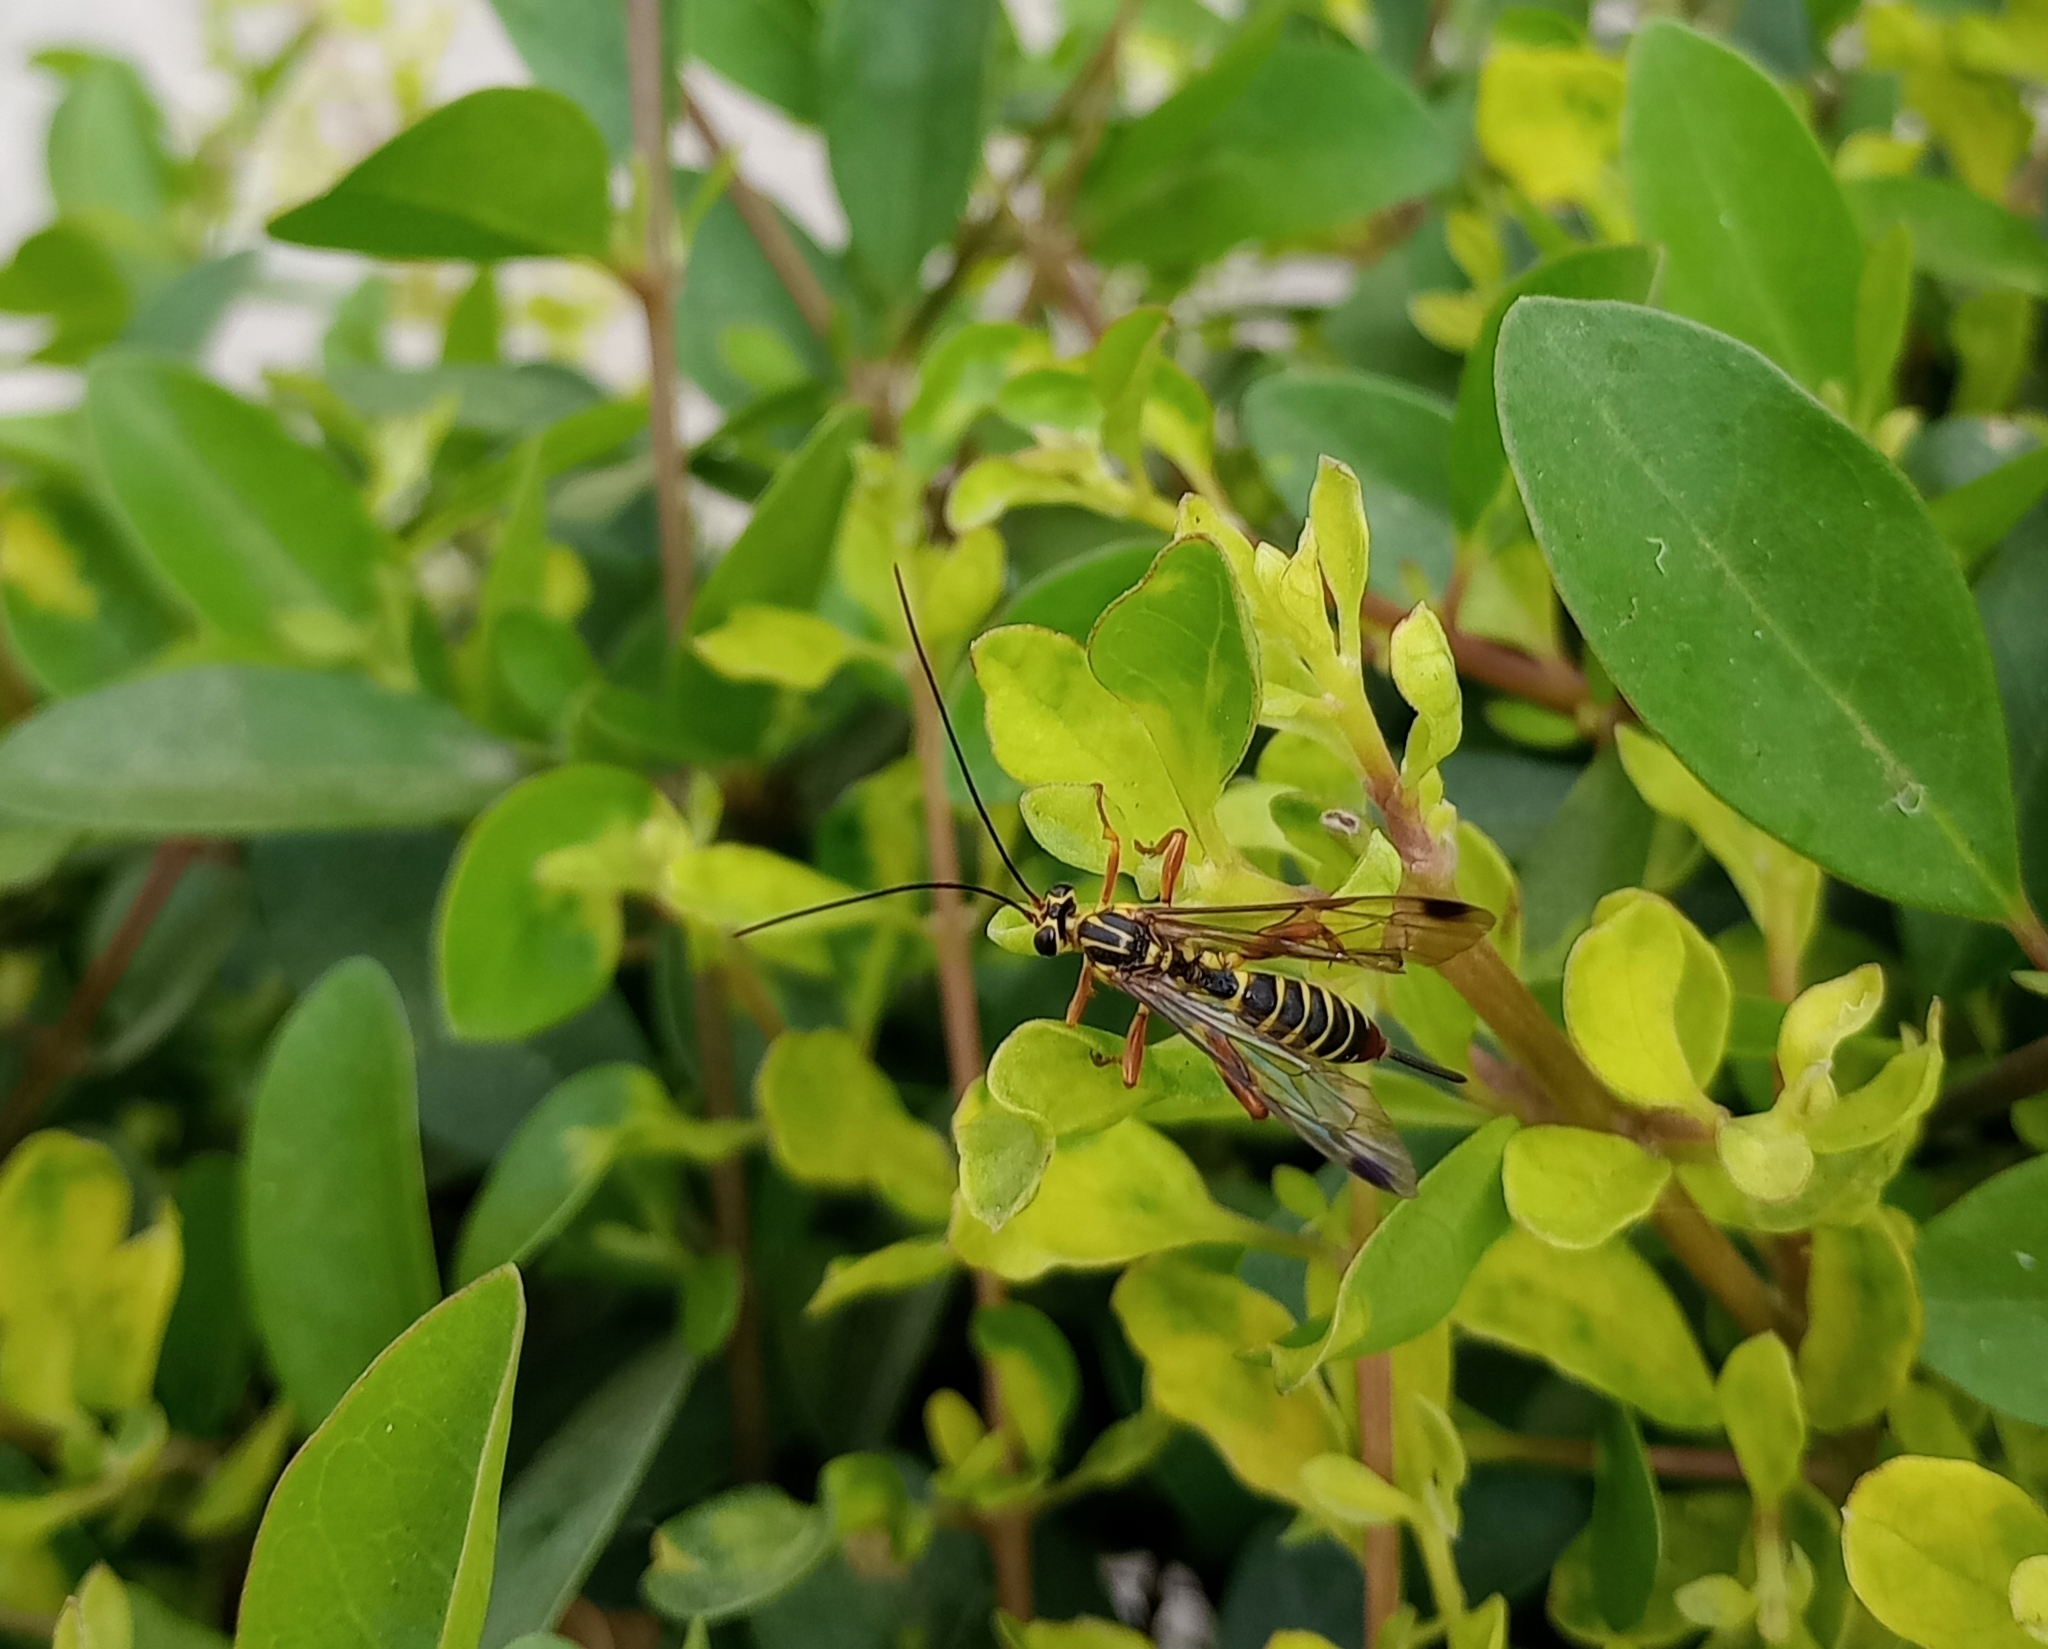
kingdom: Animalia
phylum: Arthropoda
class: Insecta
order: Hymenoptera
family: Ichneumonidae
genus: Echthromorpha
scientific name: Echthromorpha agrestoria
